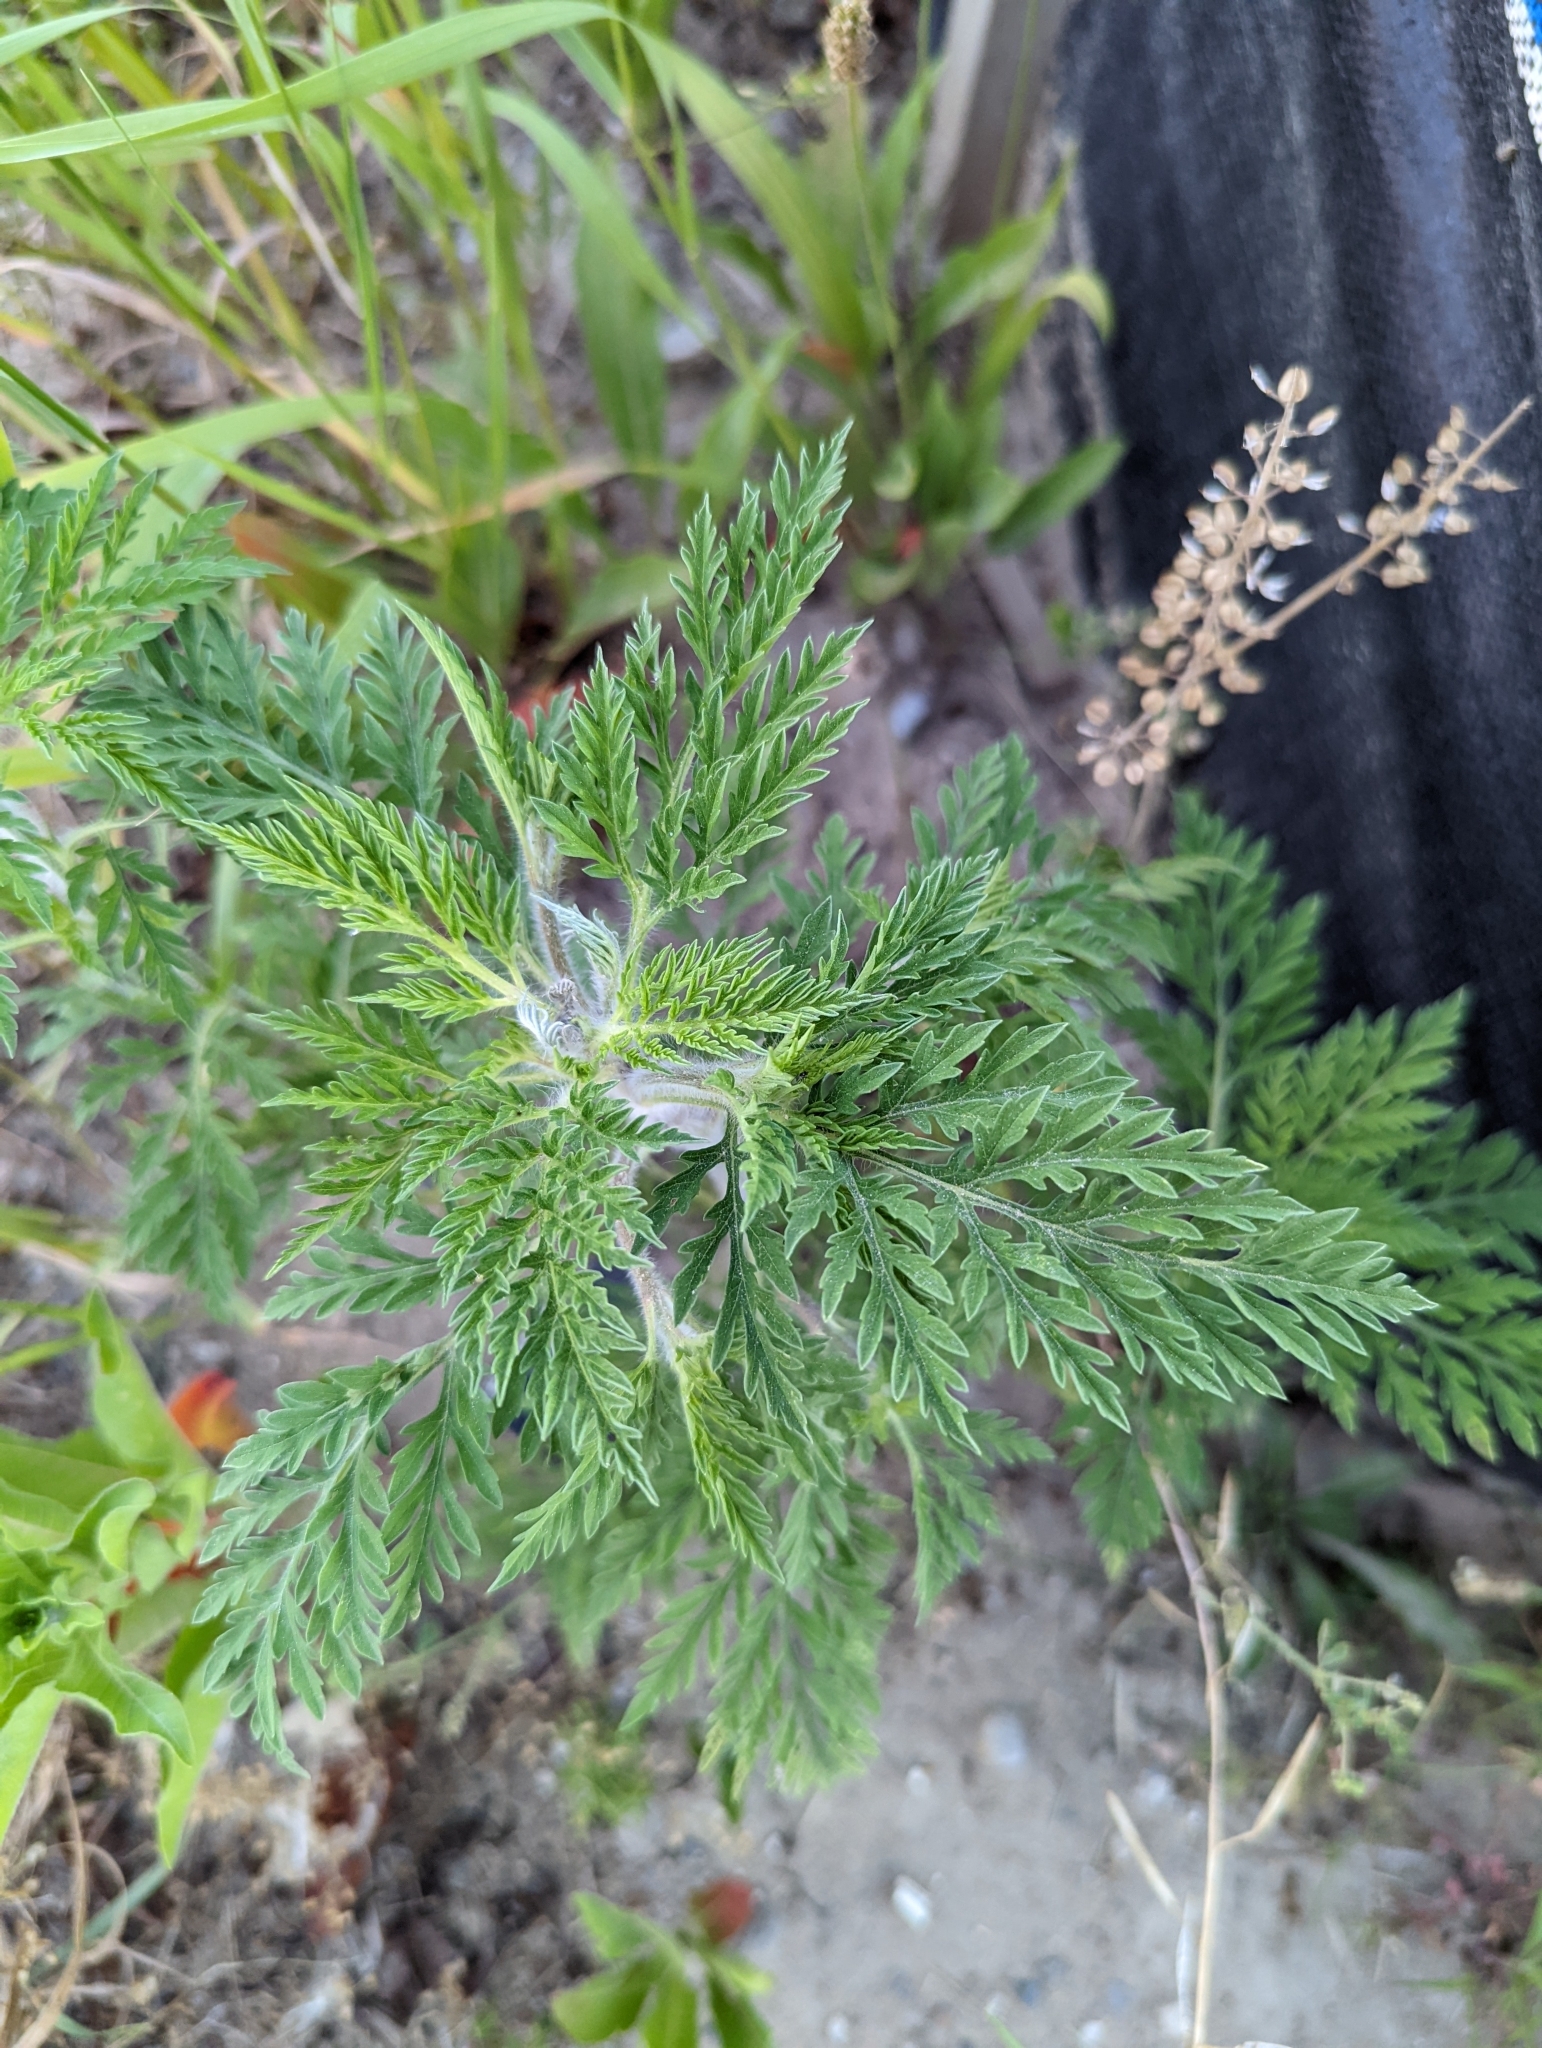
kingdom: Plantae
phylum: Tracheophyta
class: Magnoliopsida
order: Asterales
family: Asteraceae
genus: Ambrosia
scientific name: Ambrosia artemisiifolia
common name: Annual ragweed
